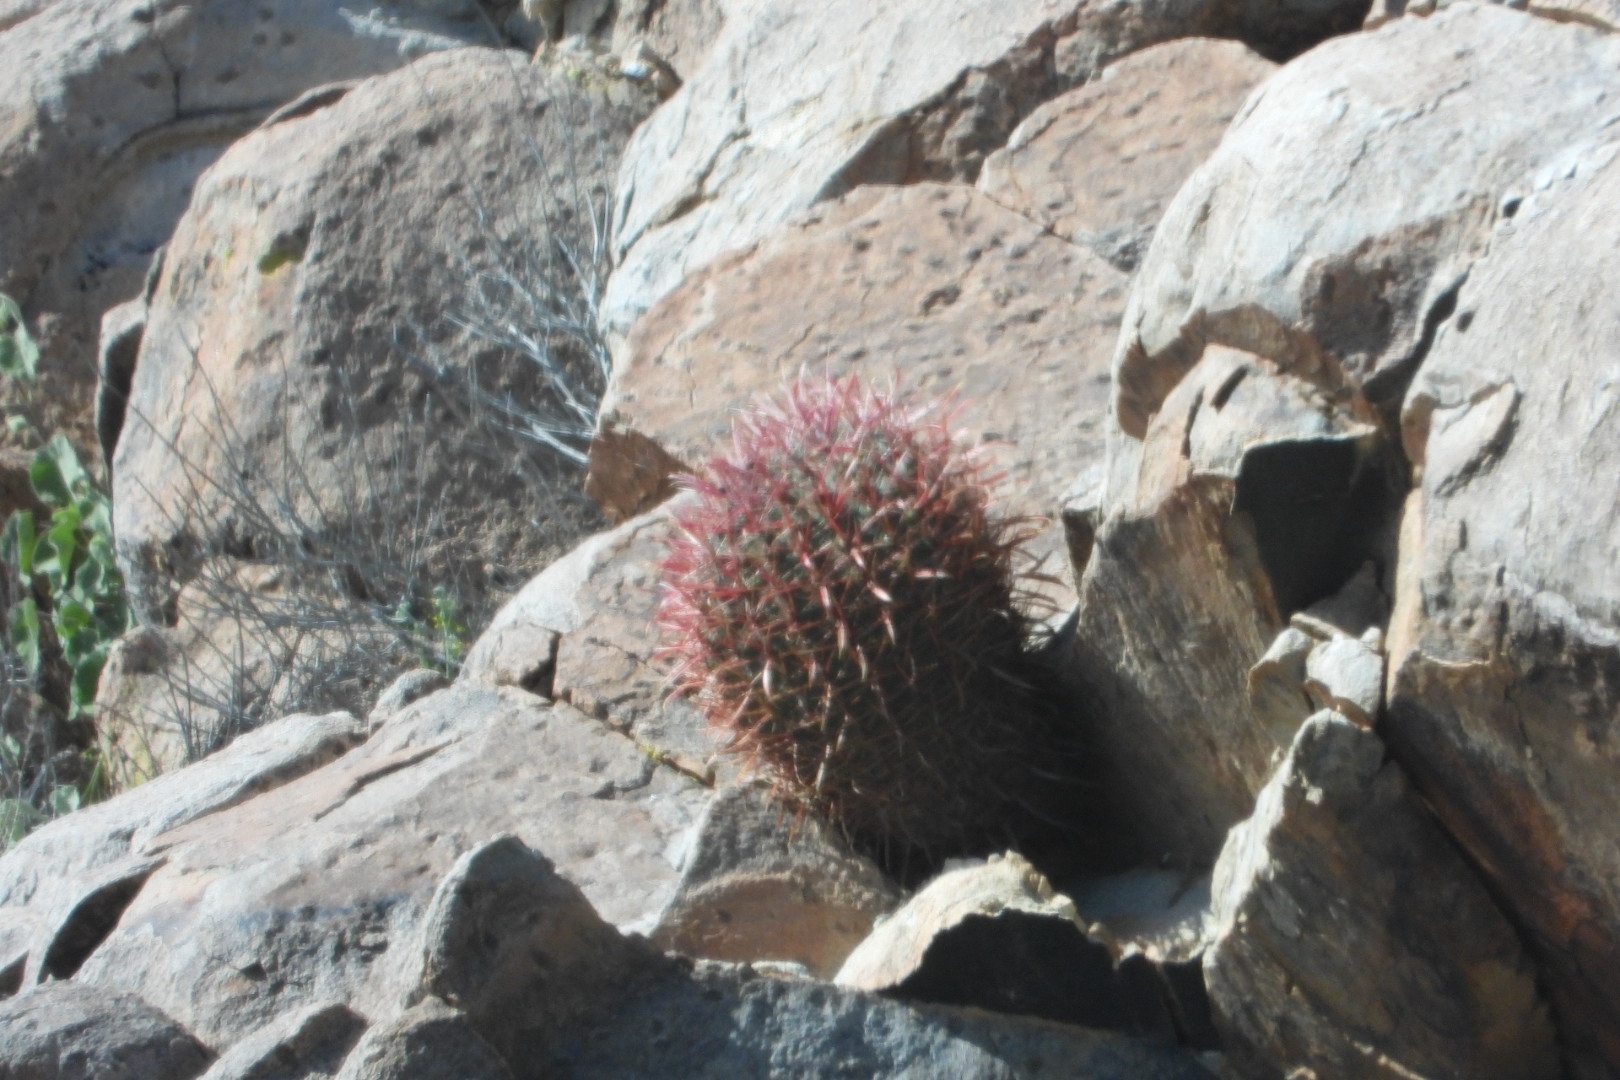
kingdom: Plantae
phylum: Tracheophyta
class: Magnoliopsida
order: Caryophyllales
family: Cactaceae
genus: Ferocactus
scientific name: Ferocactus cylindraceus
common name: California barrel cactus
